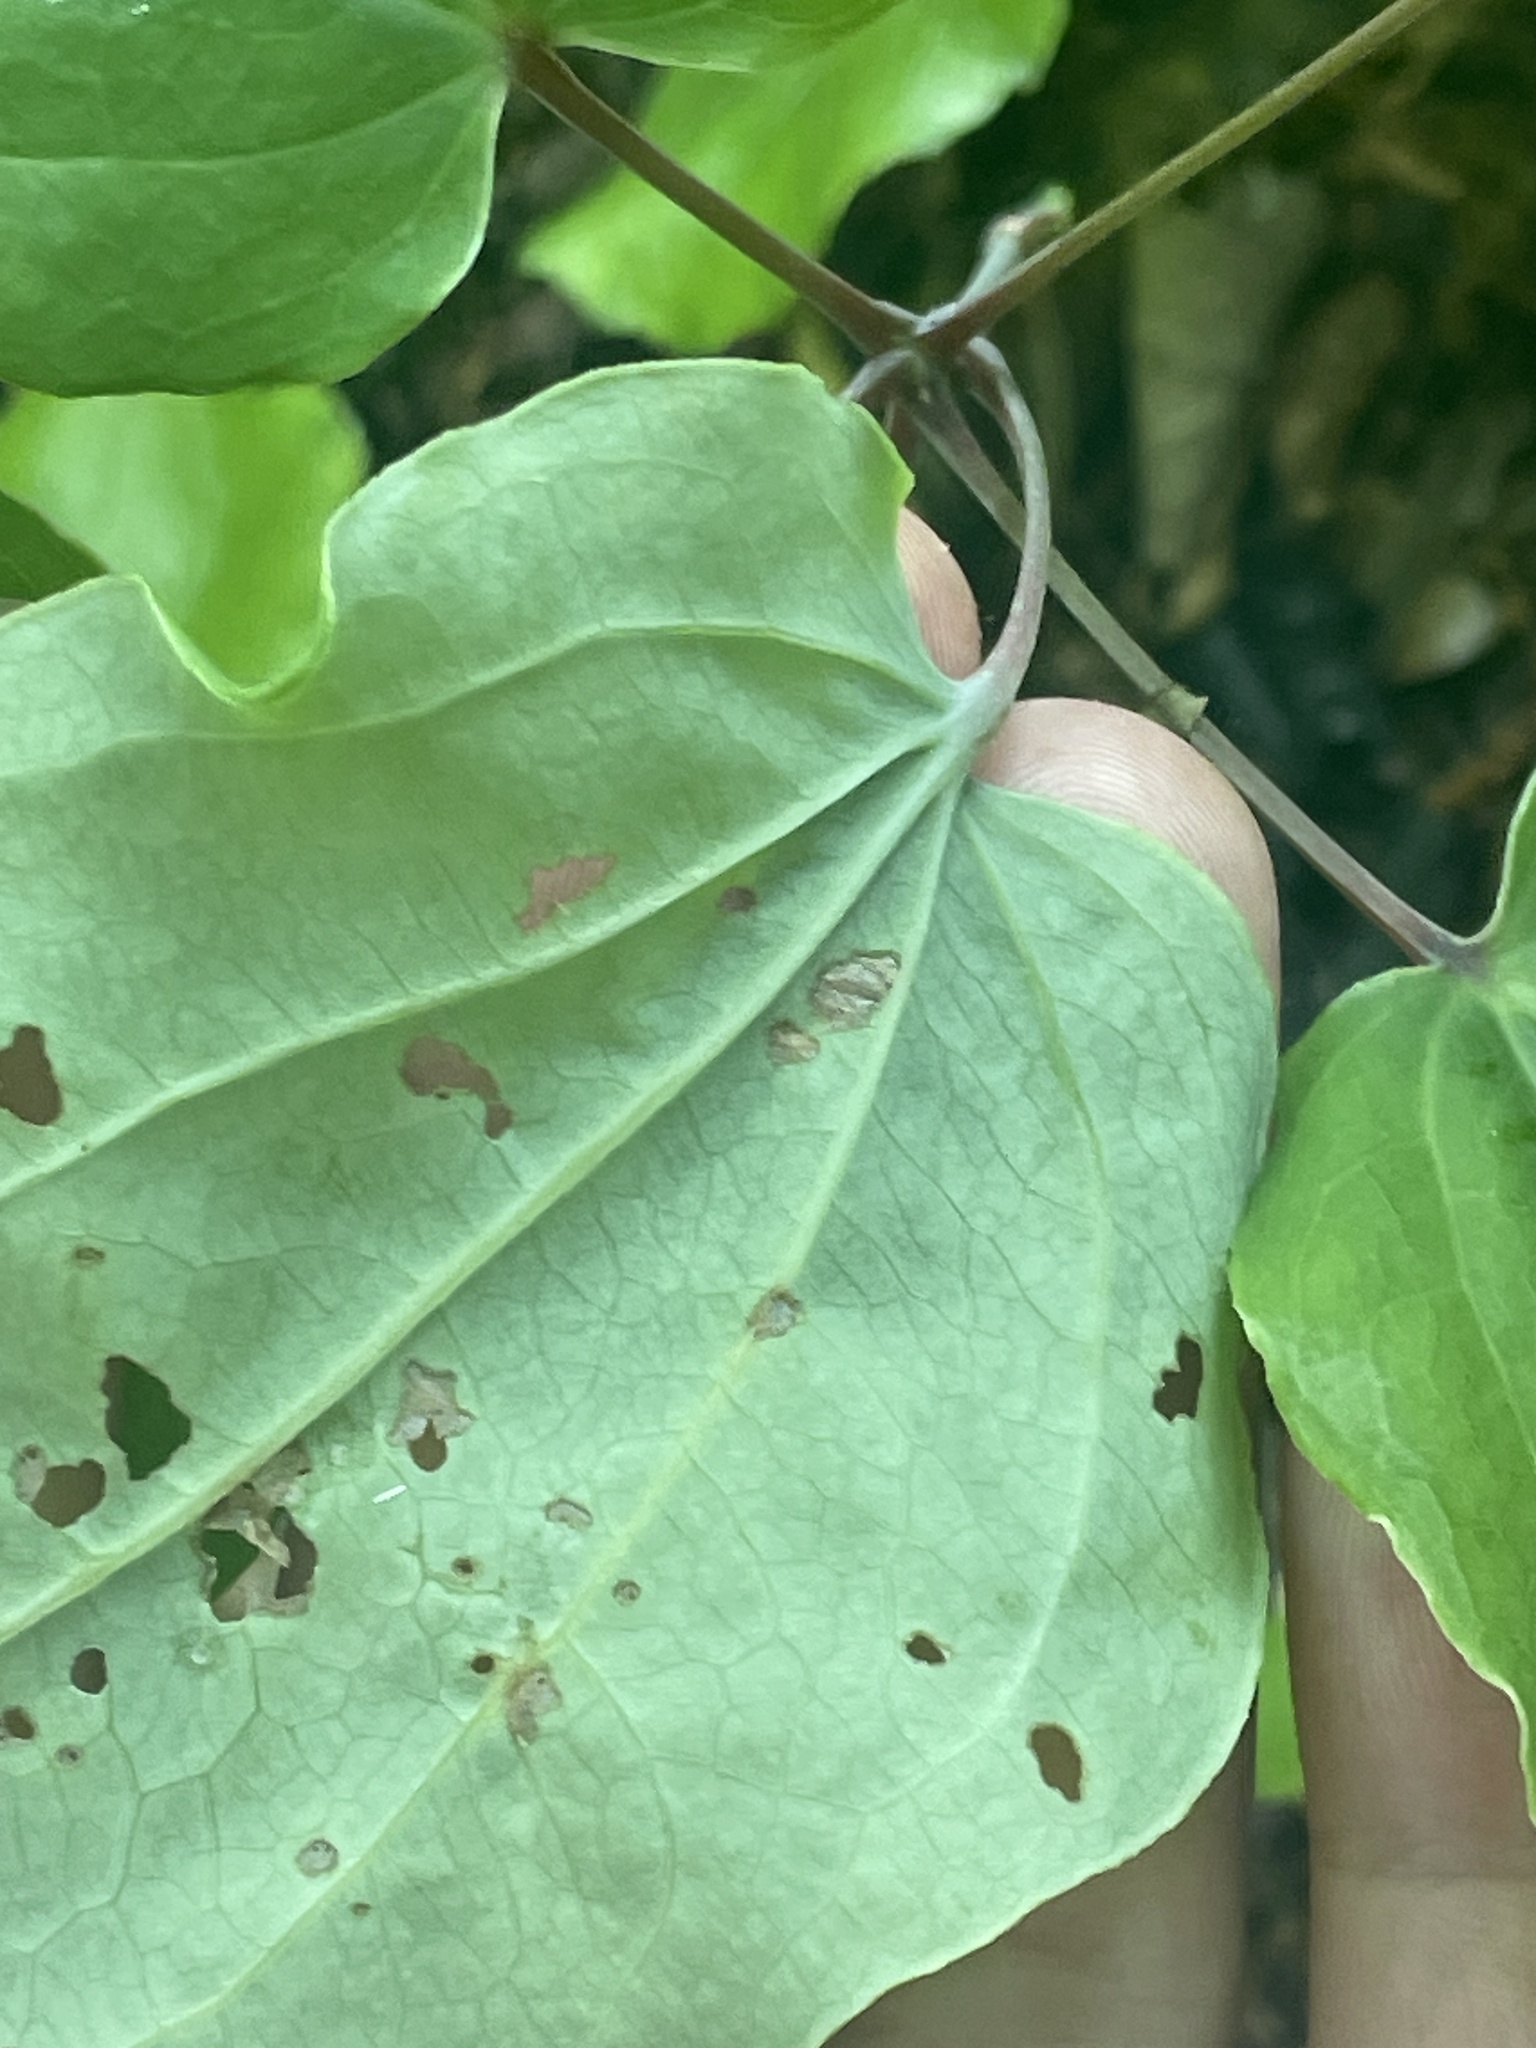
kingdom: Plantae
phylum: Tracheophyta
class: Liliopsida
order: Liliales
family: Smilacaceae
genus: Smilax
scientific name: Smilax biltmoreana
